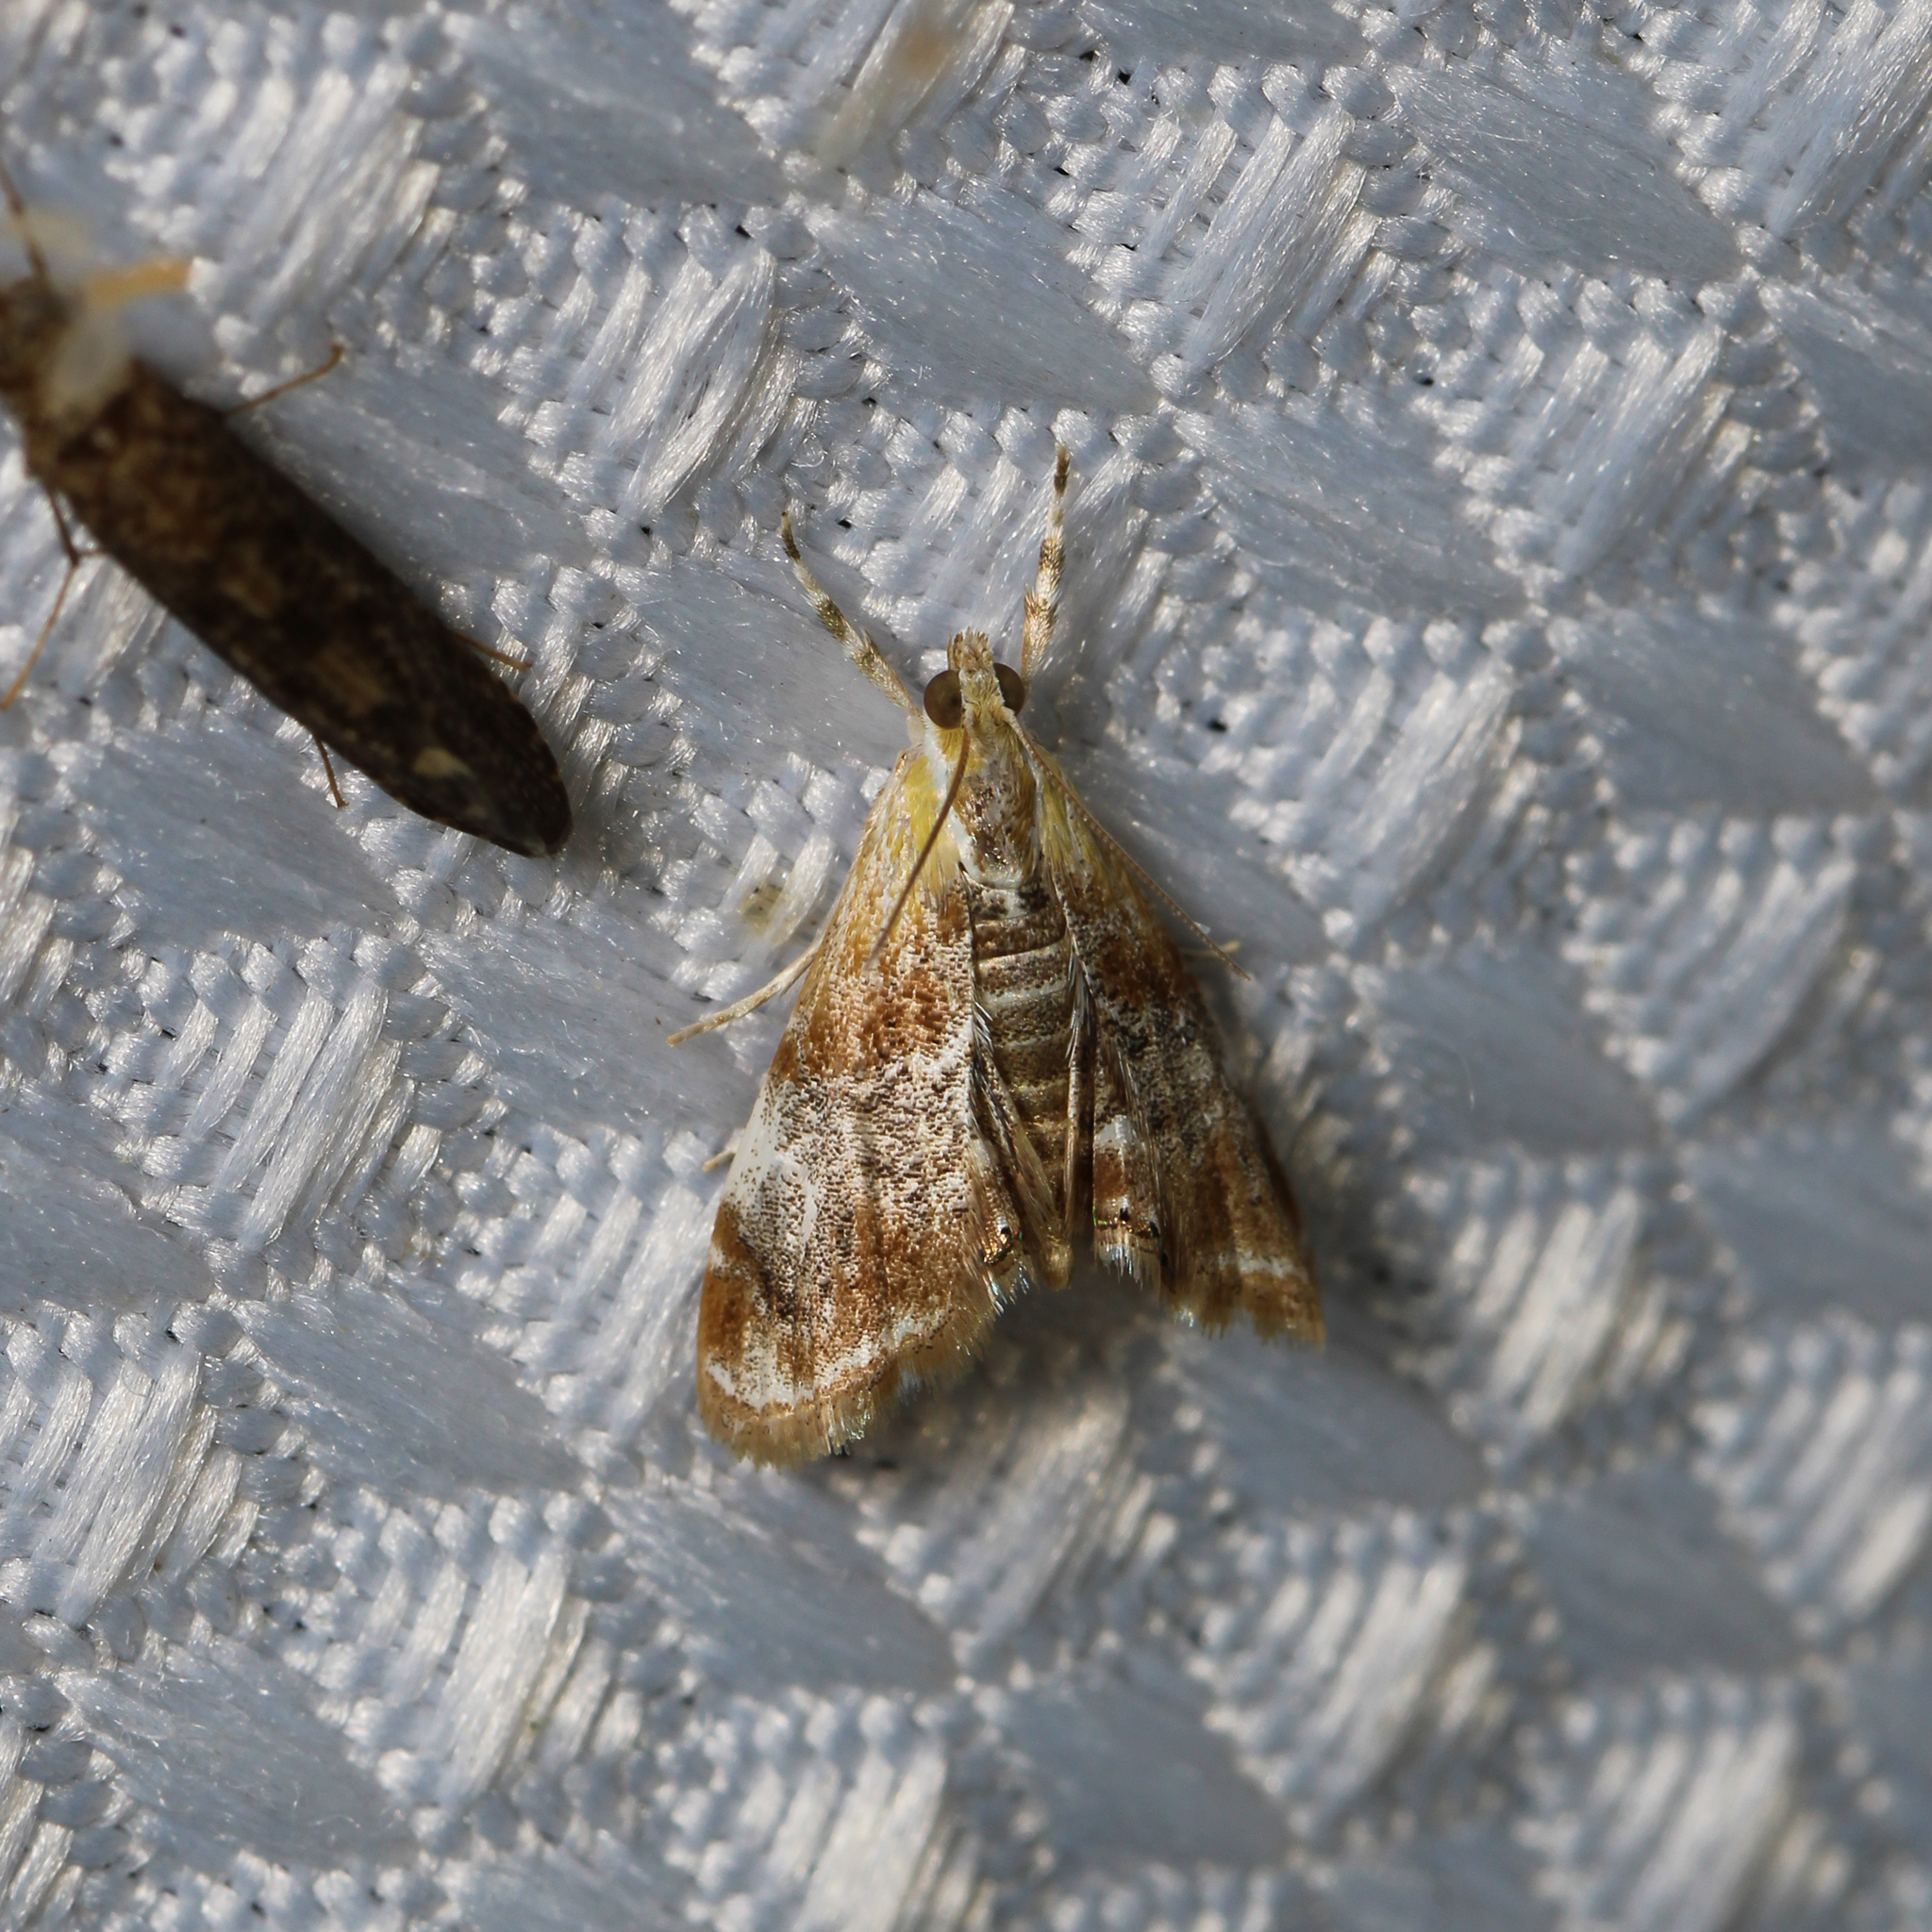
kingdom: Animalia
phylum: Arthropoda
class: Insecta
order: Lepidoptera
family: Crambidae
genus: Dicymolomia
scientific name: Dicymolomia julianalis
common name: Julia's dicymolomia moth
